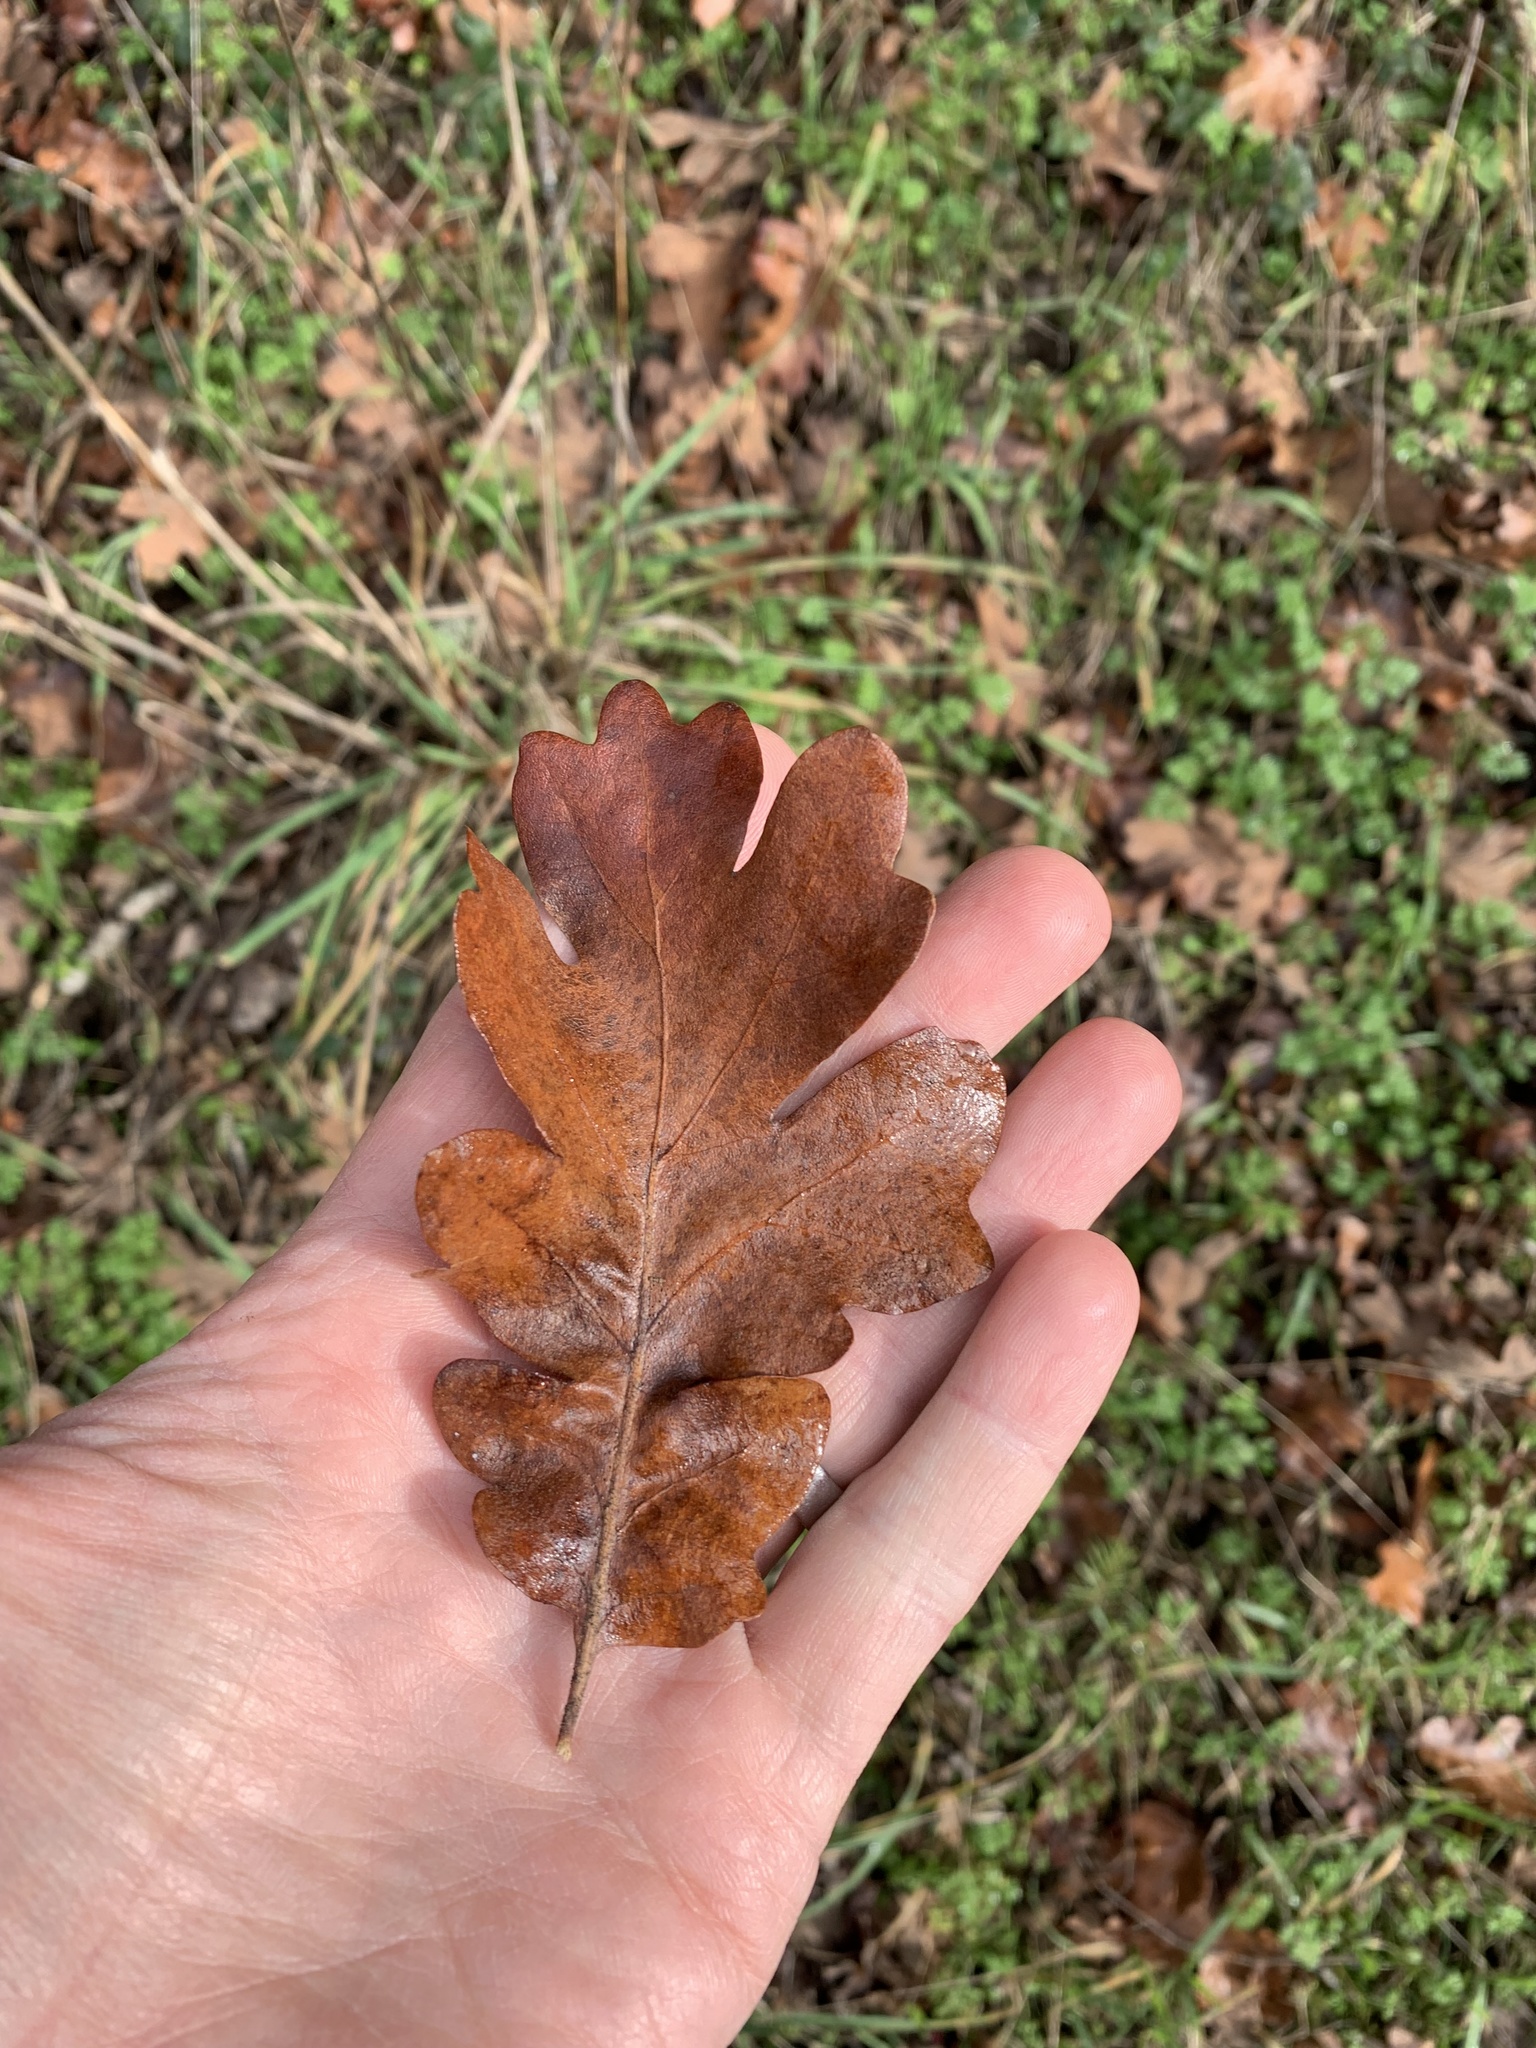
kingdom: Plantae
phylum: Tracheophyta
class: Magnoliopsida
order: Fagales
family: Fagaceae
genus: Quercus
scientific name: Quercus garryana
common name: Garry oak
